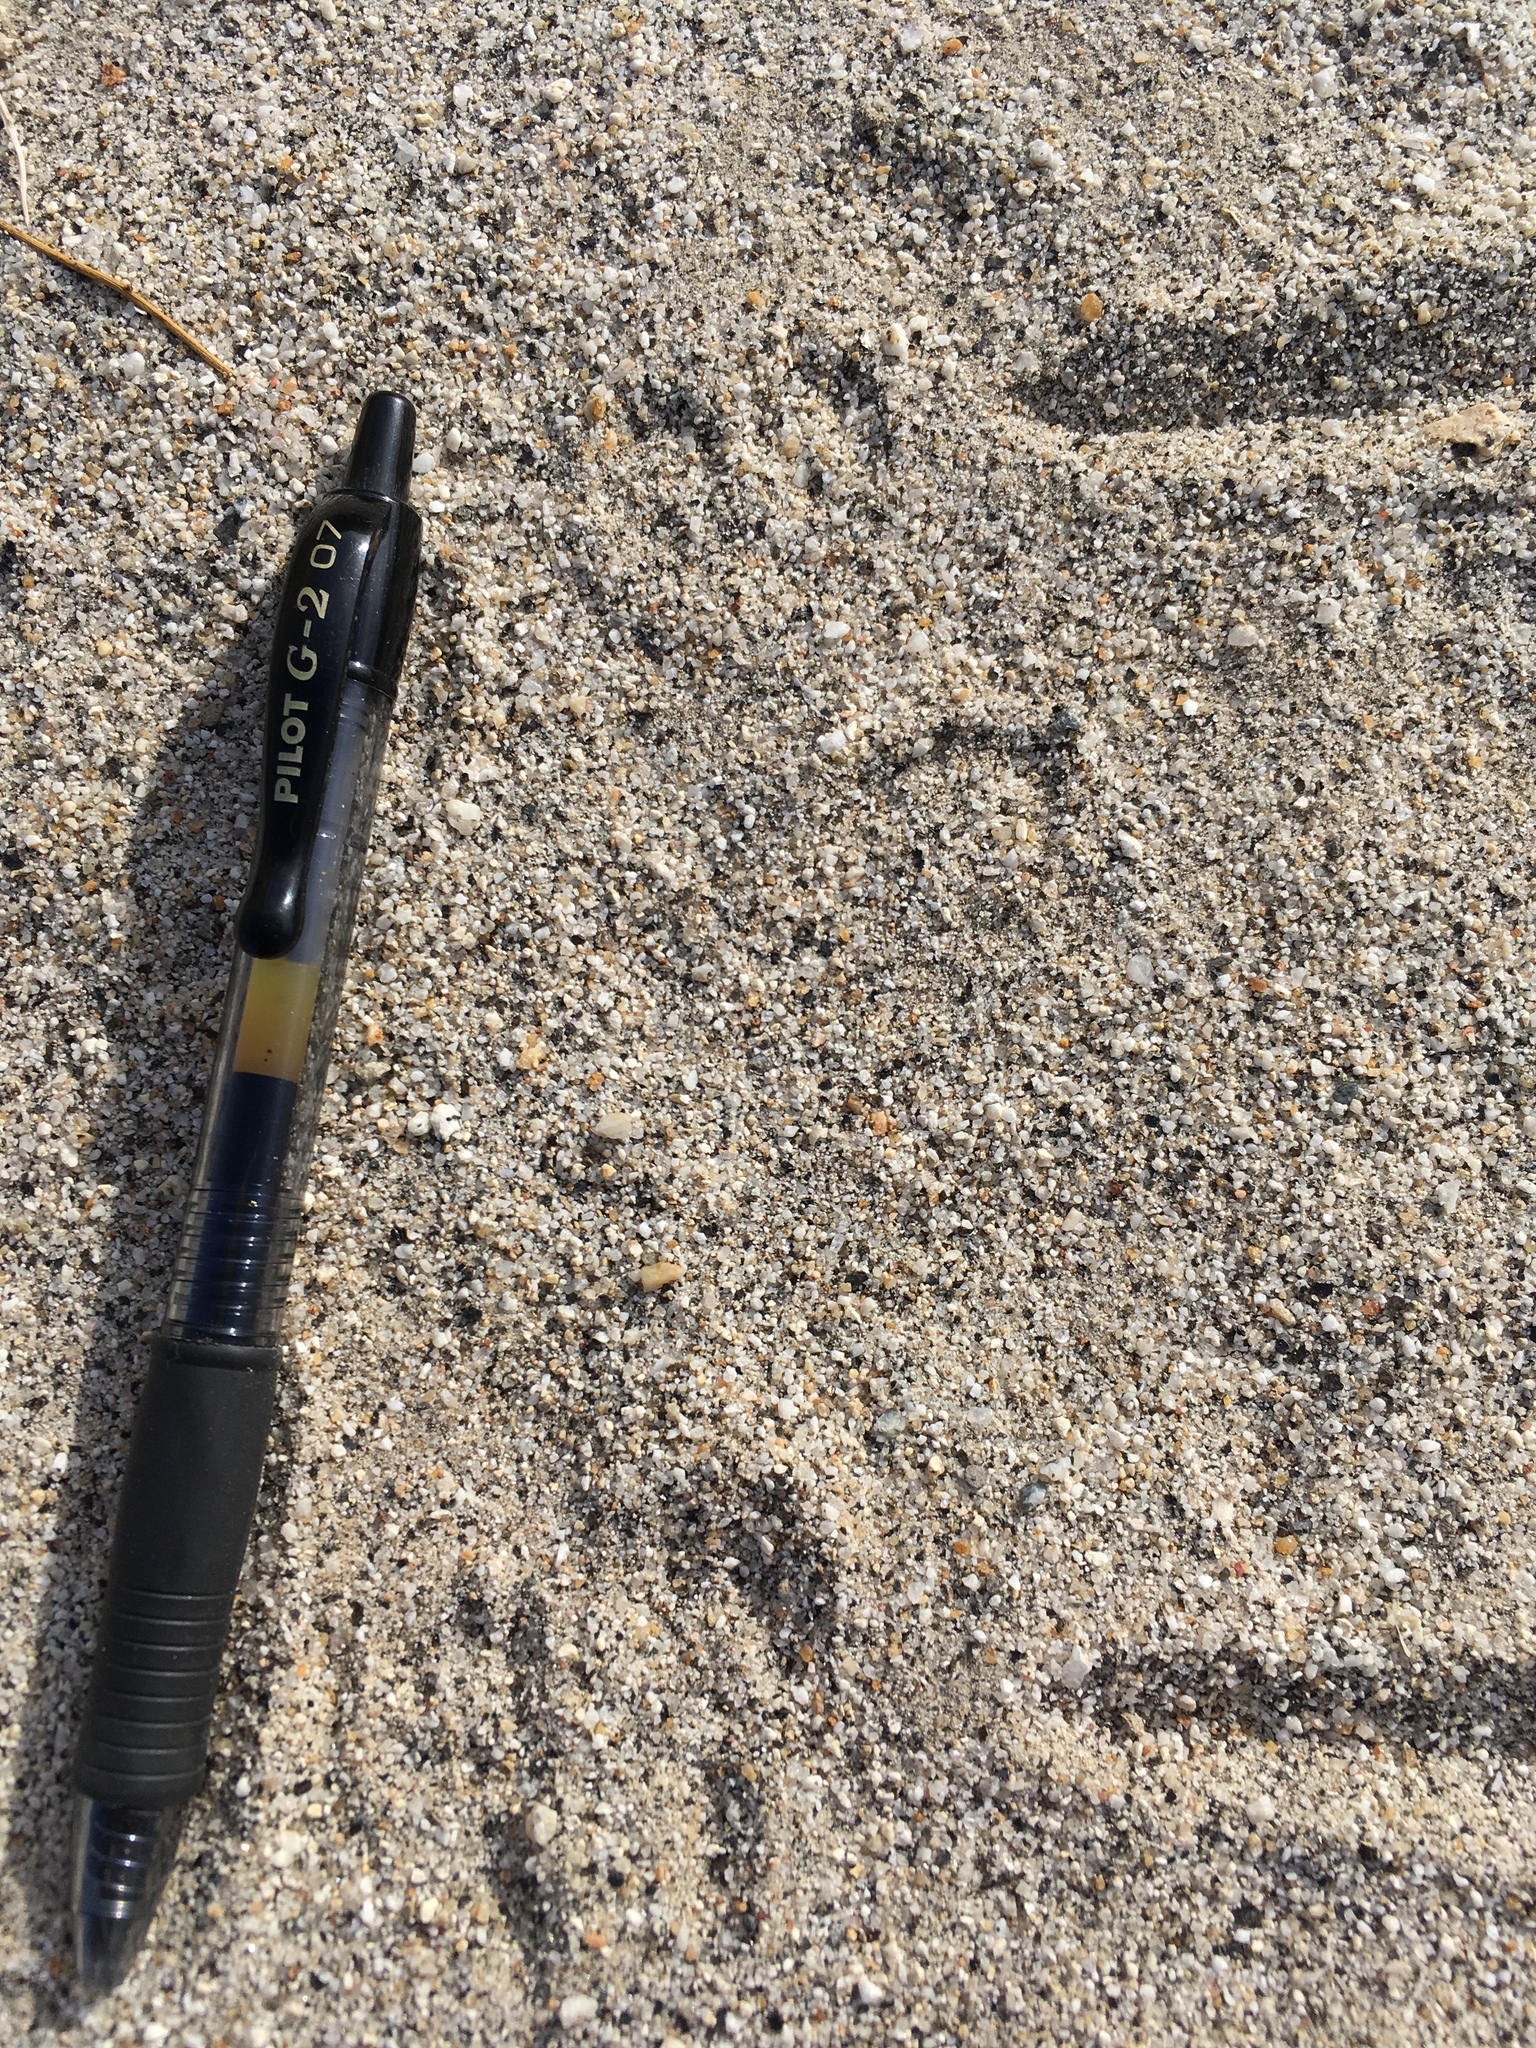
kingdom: Animalia
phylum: Chordata
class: Mammalia
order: Rodentia
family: Heteromyidae
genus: Dipodomys
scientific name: Dipodomys deserti
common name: Desert kangaroo rat
